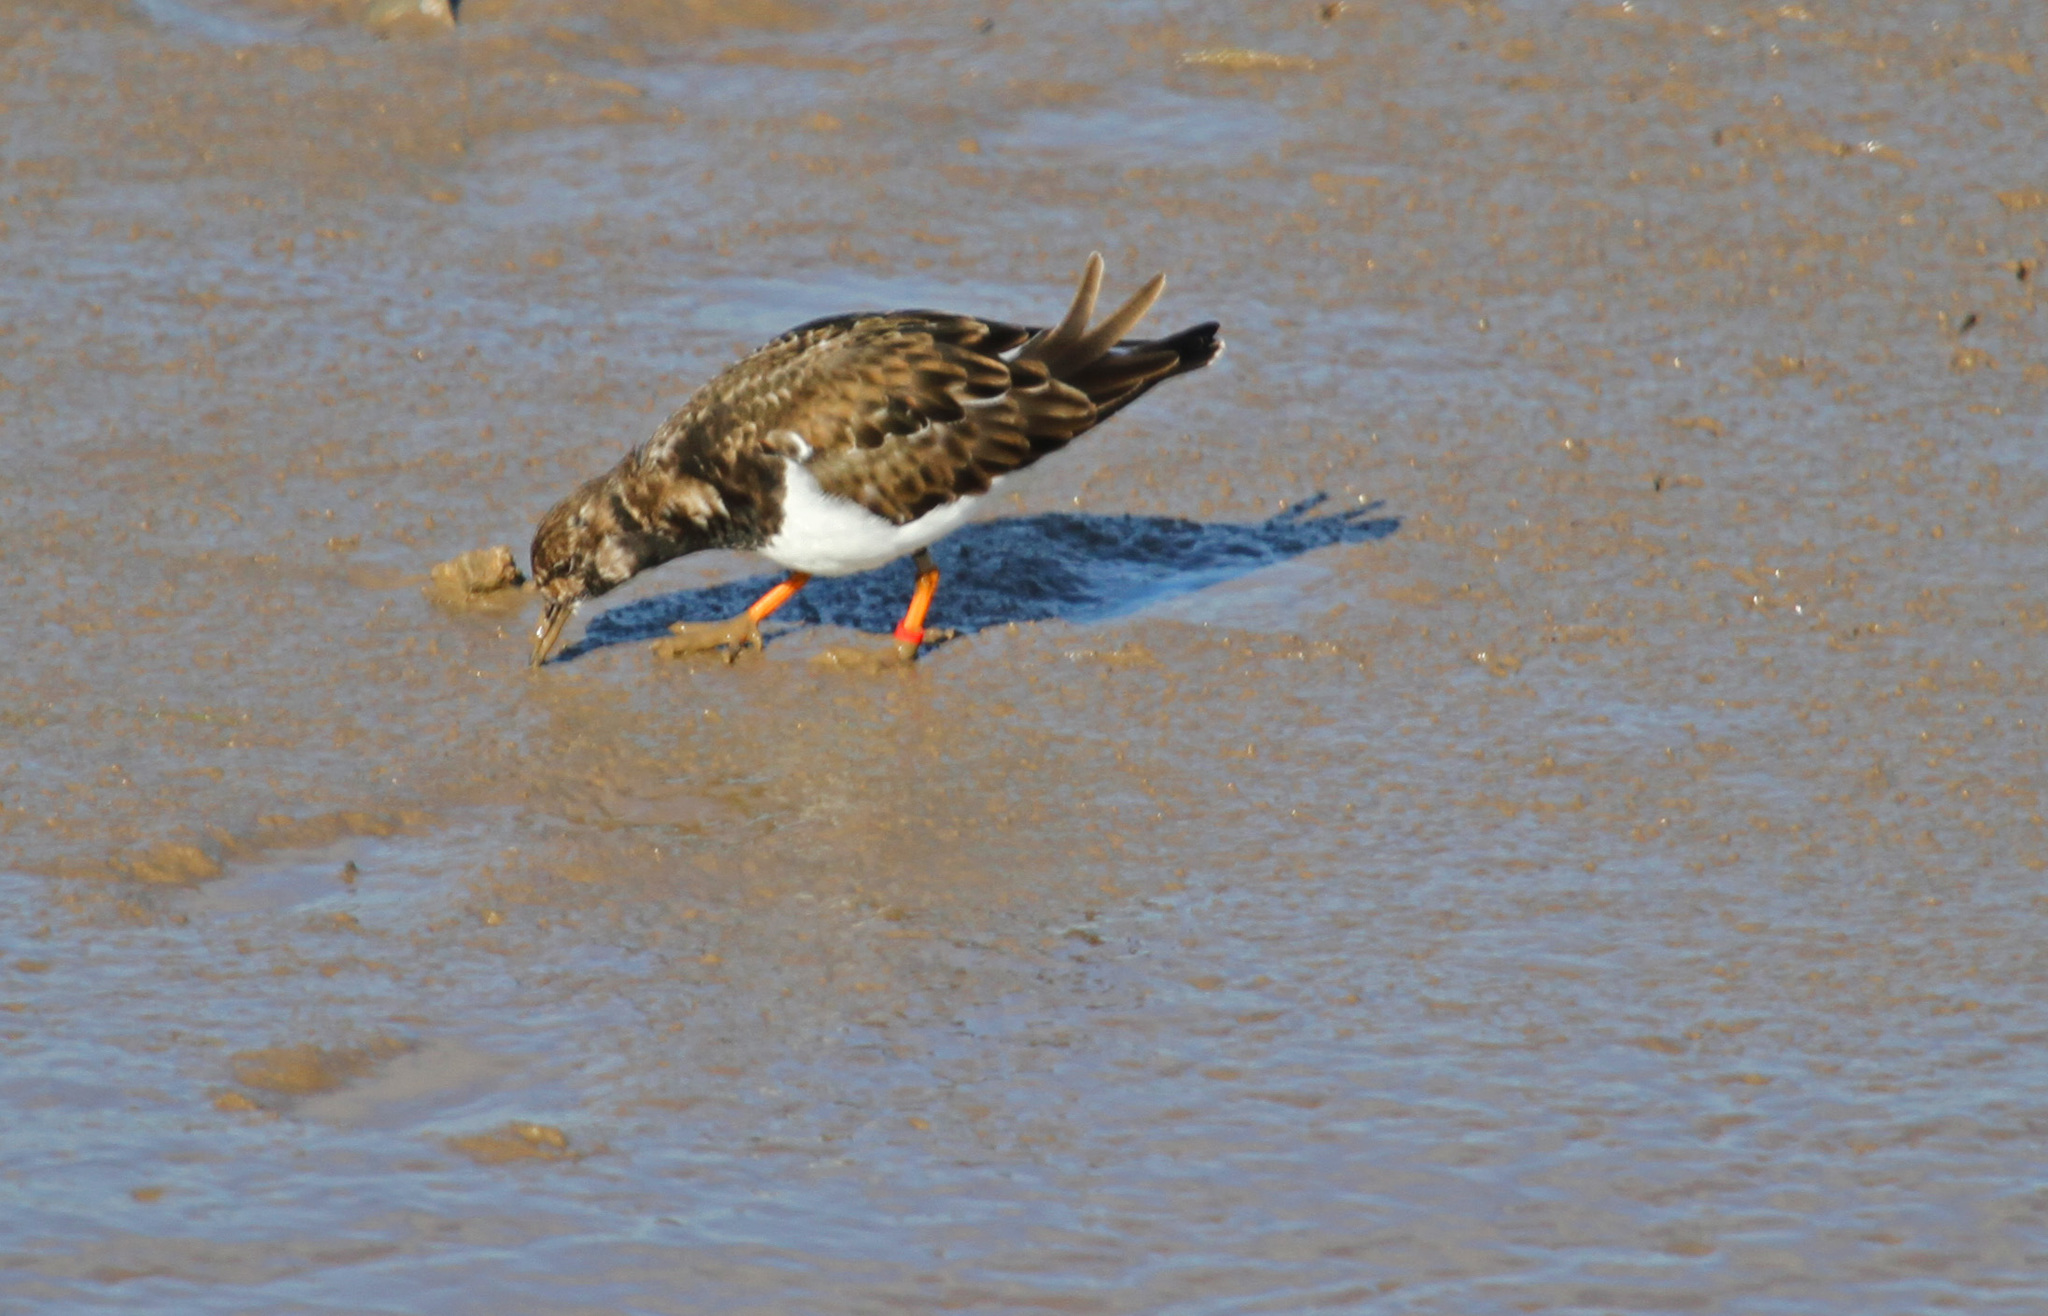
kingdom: Animalia
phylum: Chordata
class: Aves
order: Charadriiformes
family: Scolopacidae
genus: Arenaria
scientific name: Arenaria interpres
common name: Ruddy turnstone
